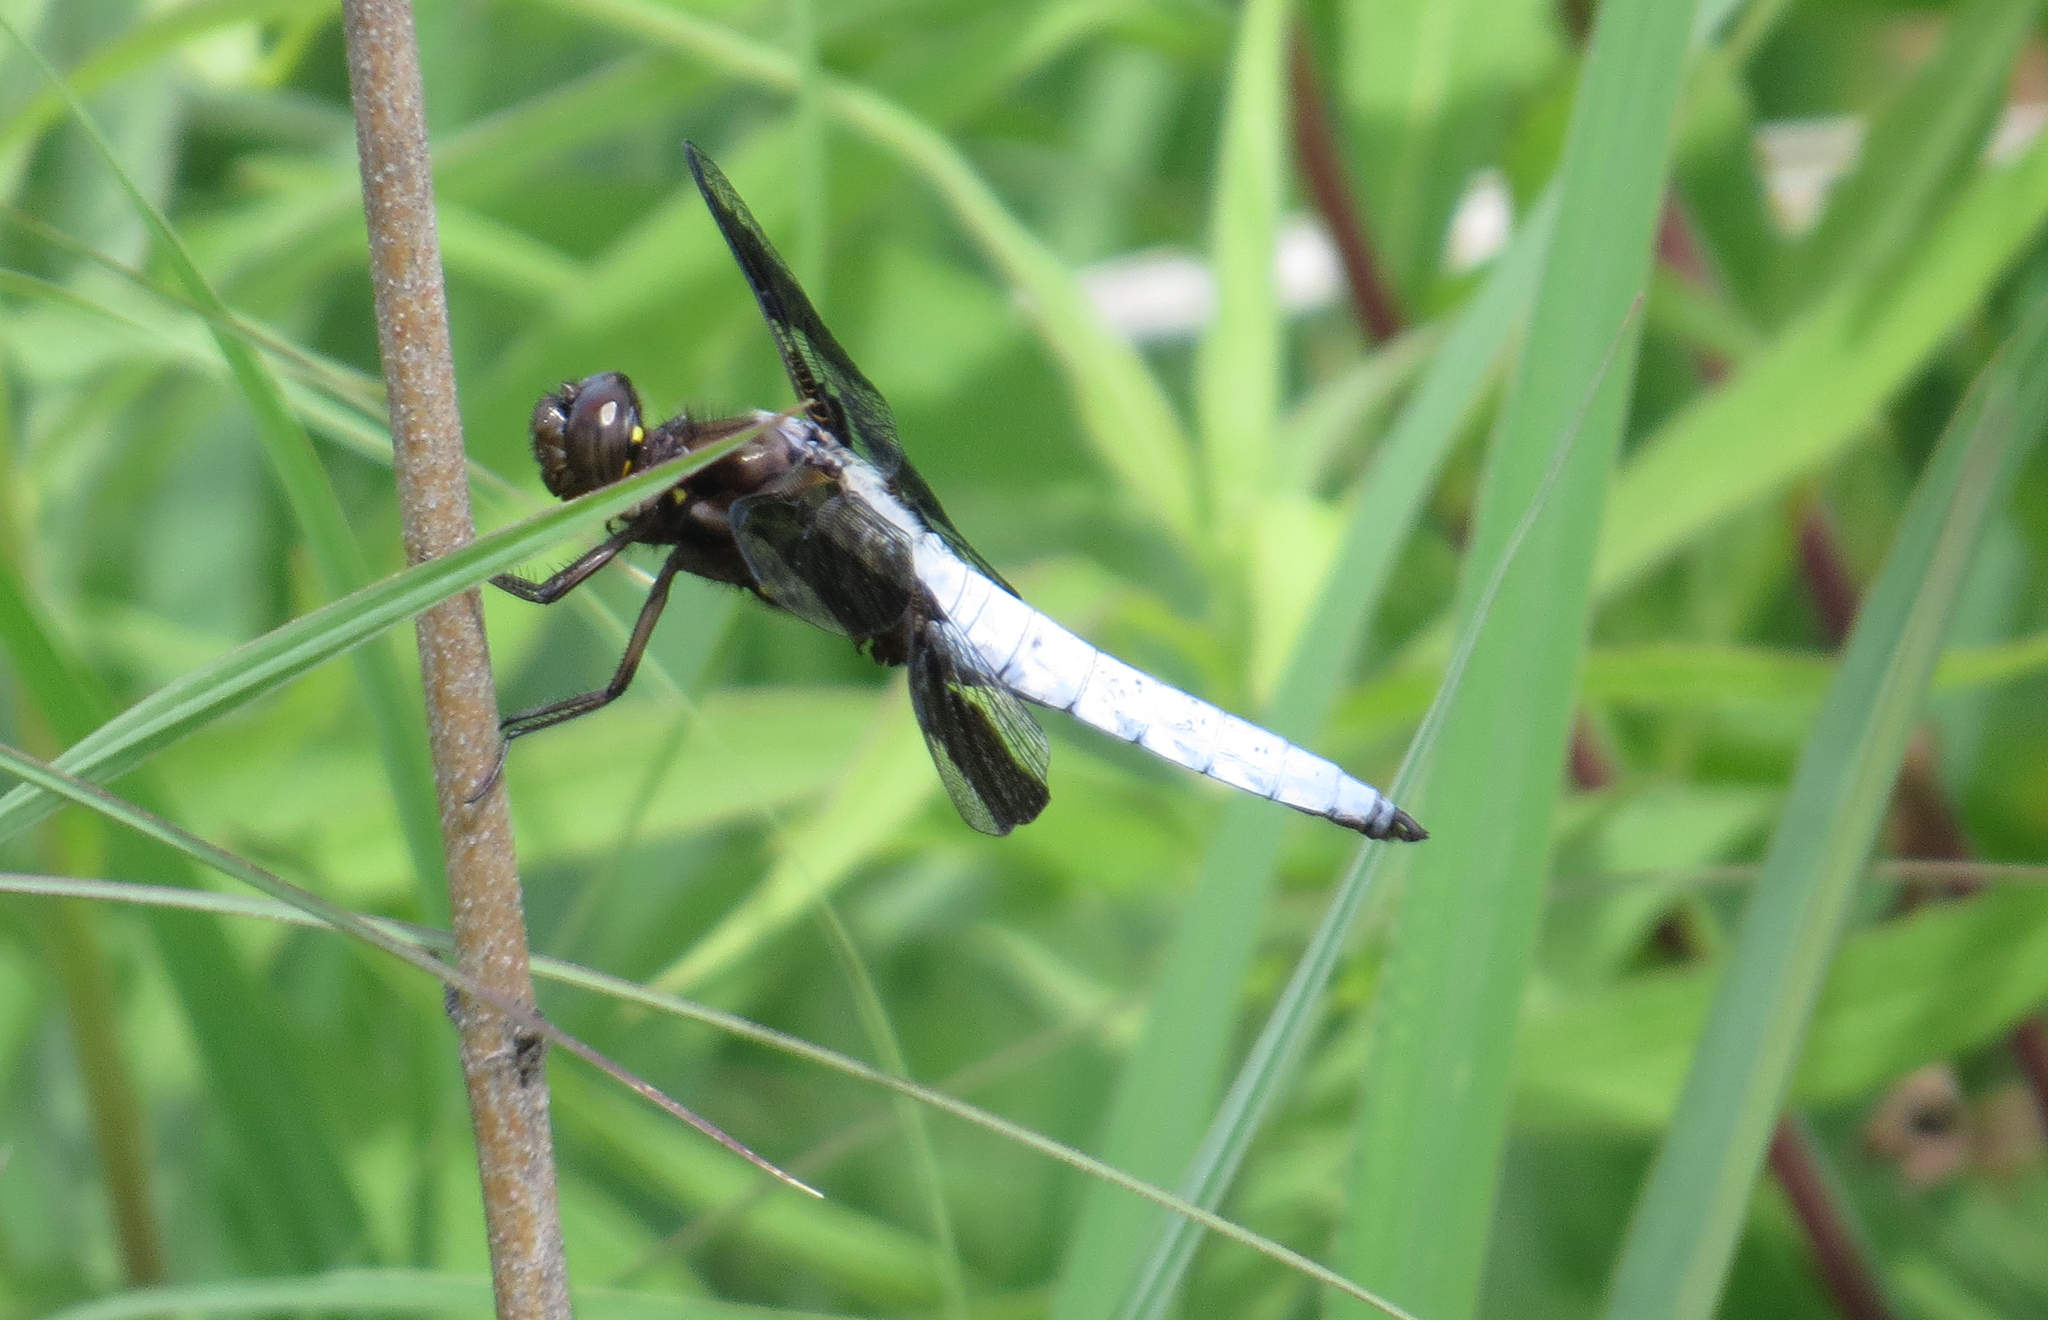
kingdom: Animalia
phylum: Arthropoda
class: Insecta
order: Odonata
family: Libellulidae
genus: Plathemis
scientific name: Plathemis lydia
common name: Common whitetail
